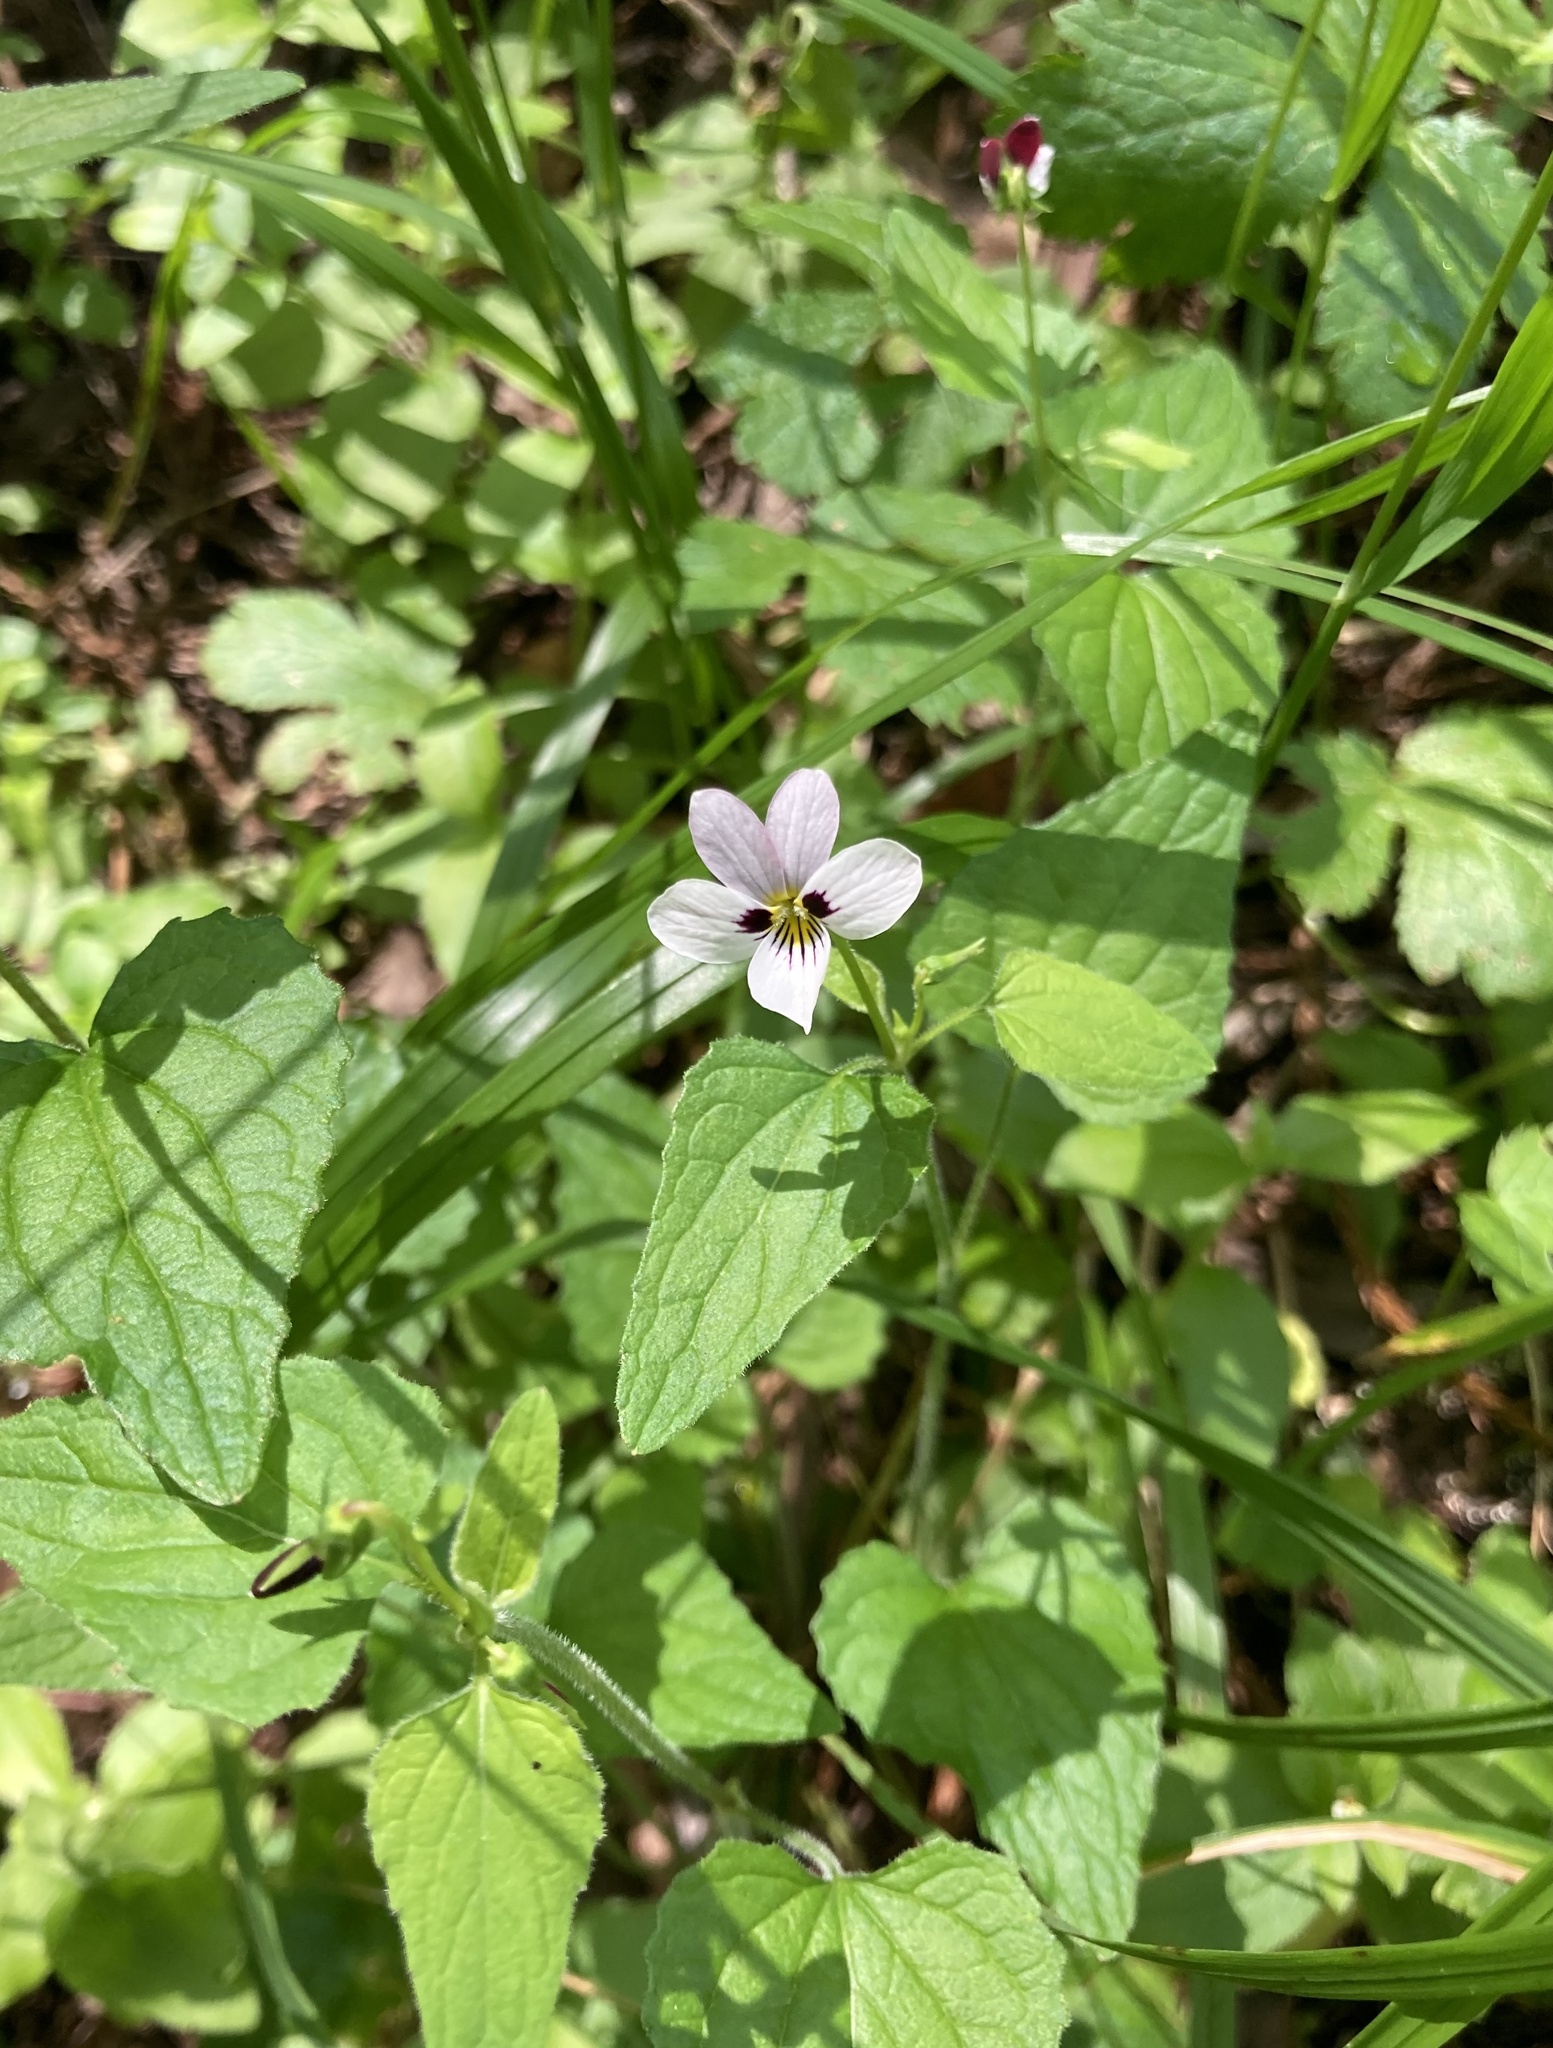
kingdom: Plantae
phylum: Tracheophyta
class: Magnoliopsida
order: Malpighiales
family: Violaceae
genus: Viola
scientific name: Viola ocellata
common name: Western heart's ease
